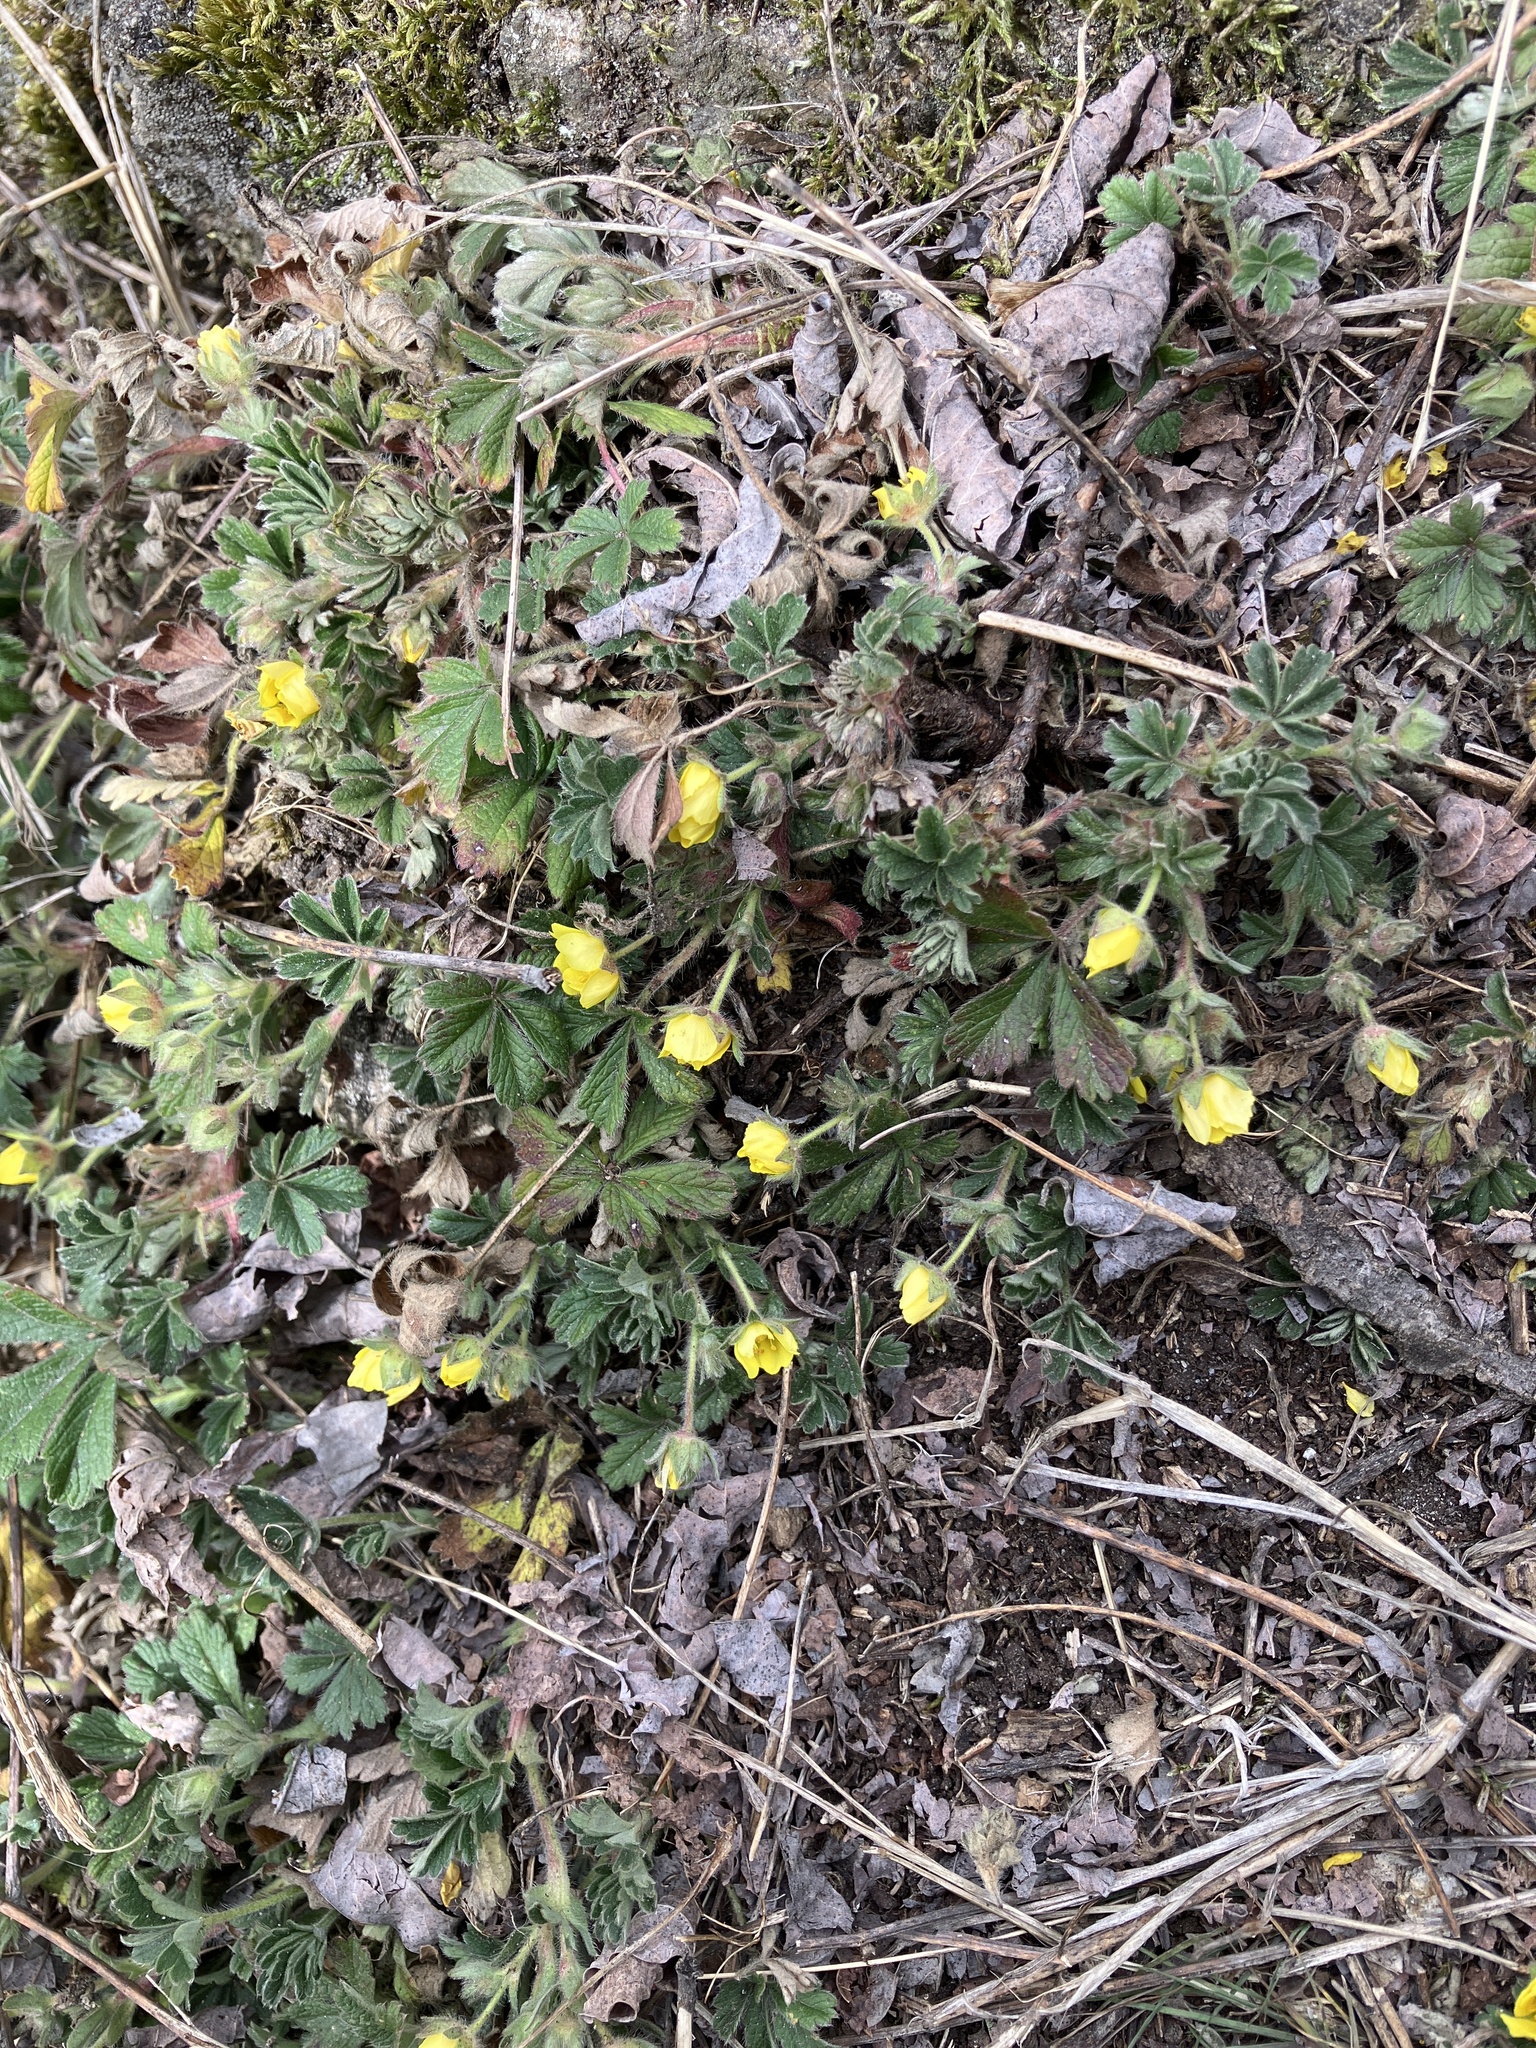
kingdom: Plantae
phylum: Tracheophyta
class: Magnoliopsida
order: Rosales
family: Rosaceae
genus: Potentilla
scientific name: Potentilla incana
